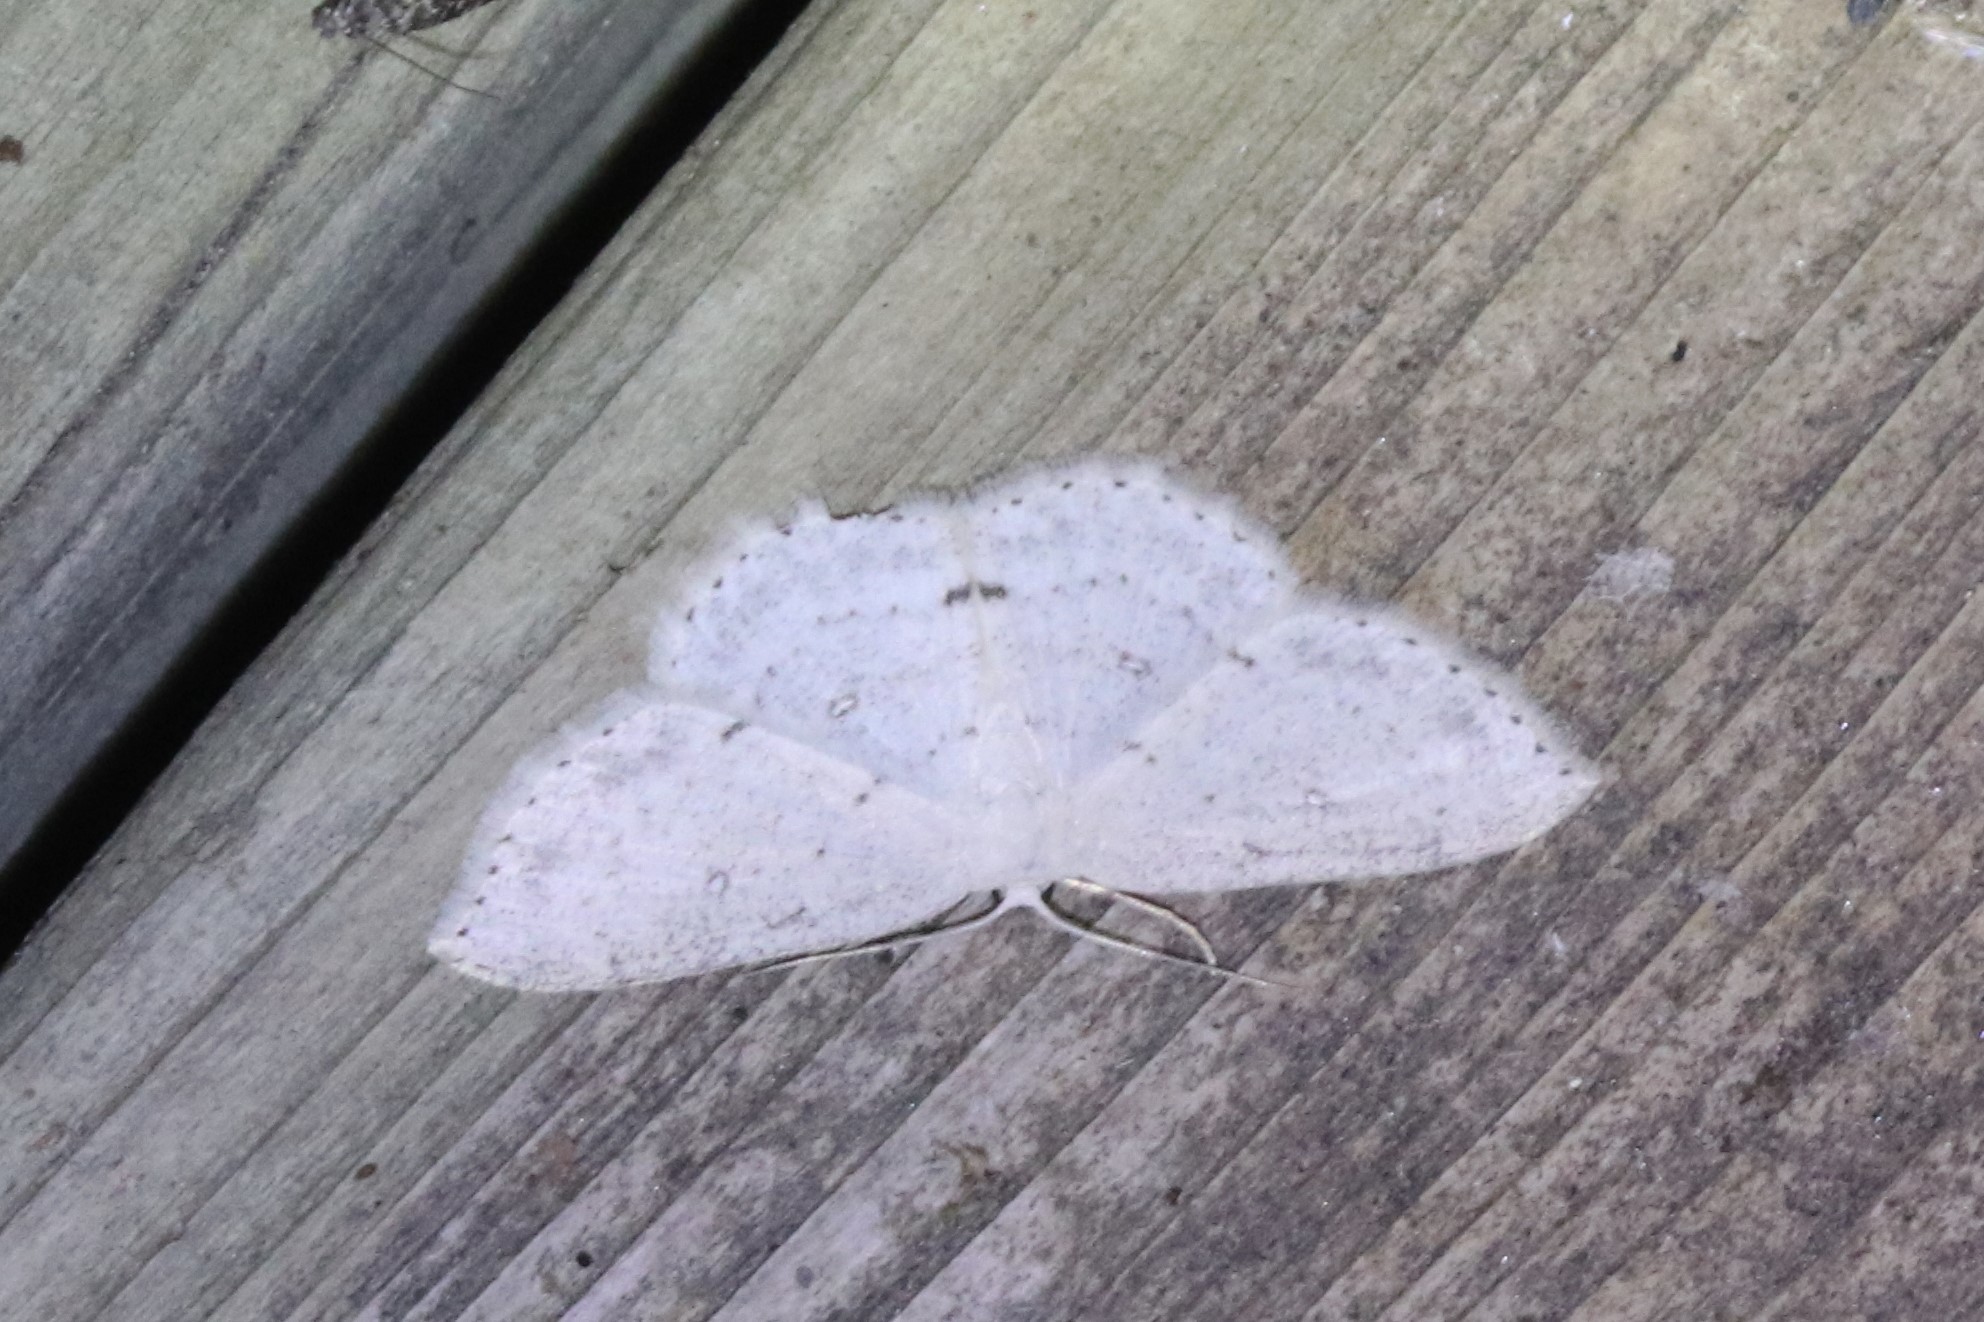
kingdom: Animalia
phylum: Arthropoda
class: Insecta
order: Lepidoptera
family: Geometridae
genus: Cyclophora
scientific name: Cyclophora pendulinaria
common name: Sweet fern geometer
